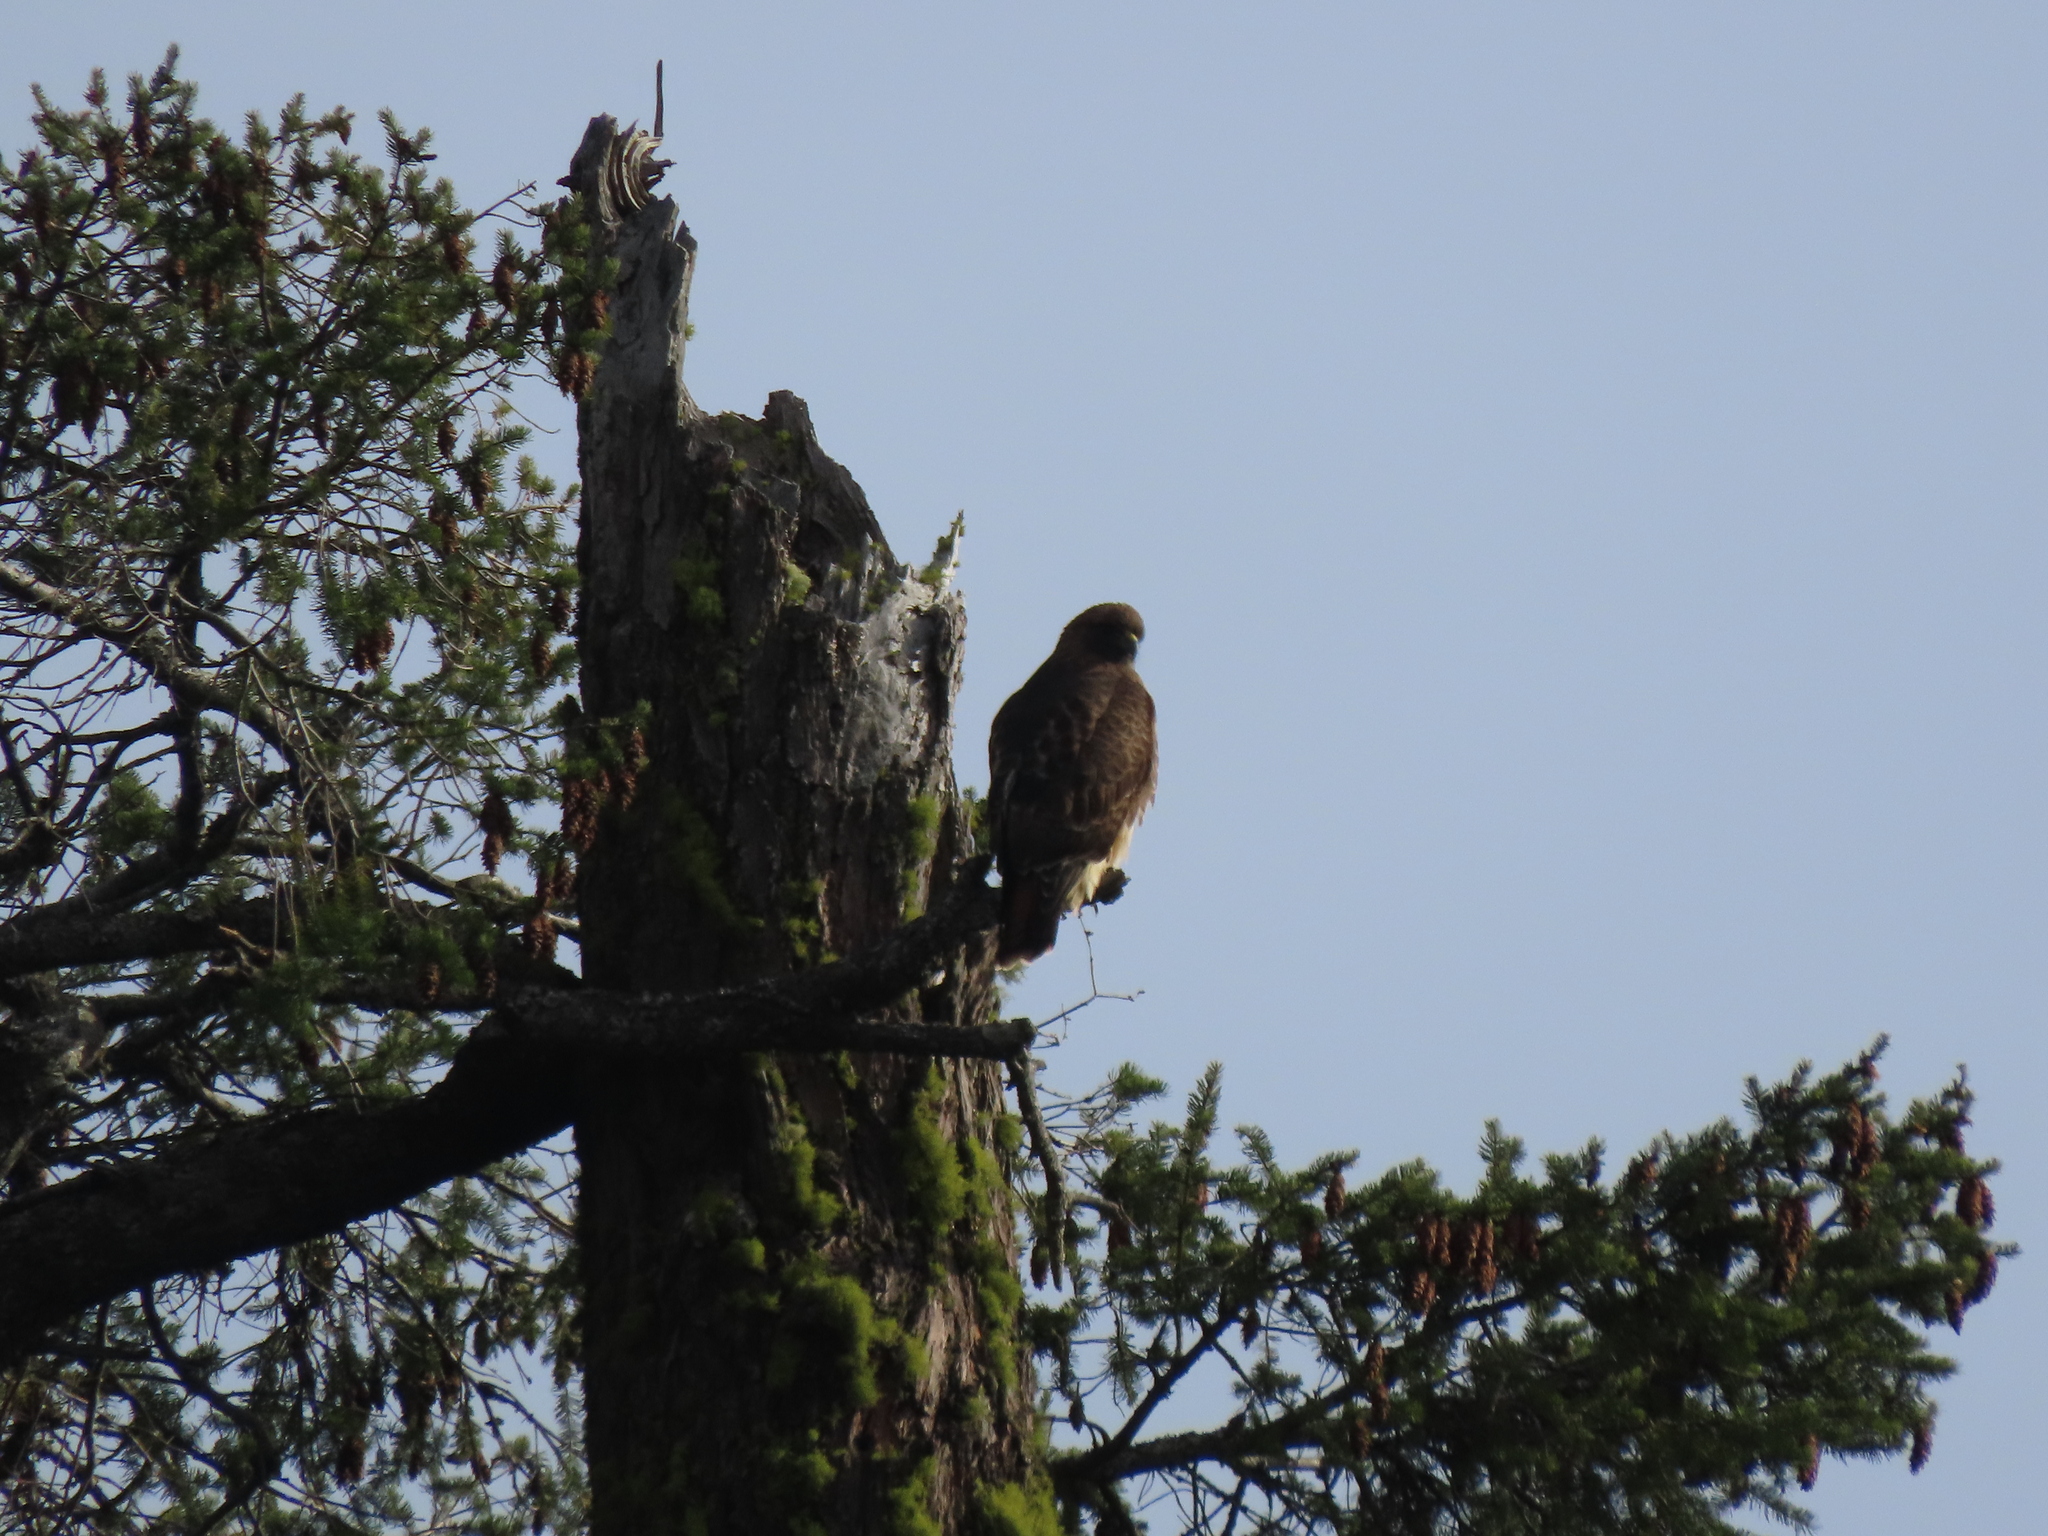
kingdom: Animalia
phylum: Chordata
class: Aves
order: Accipitriformes
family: Accipitridae
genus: Buteo
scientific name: Buteo jamaicensis
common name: Red-tailed hawk
